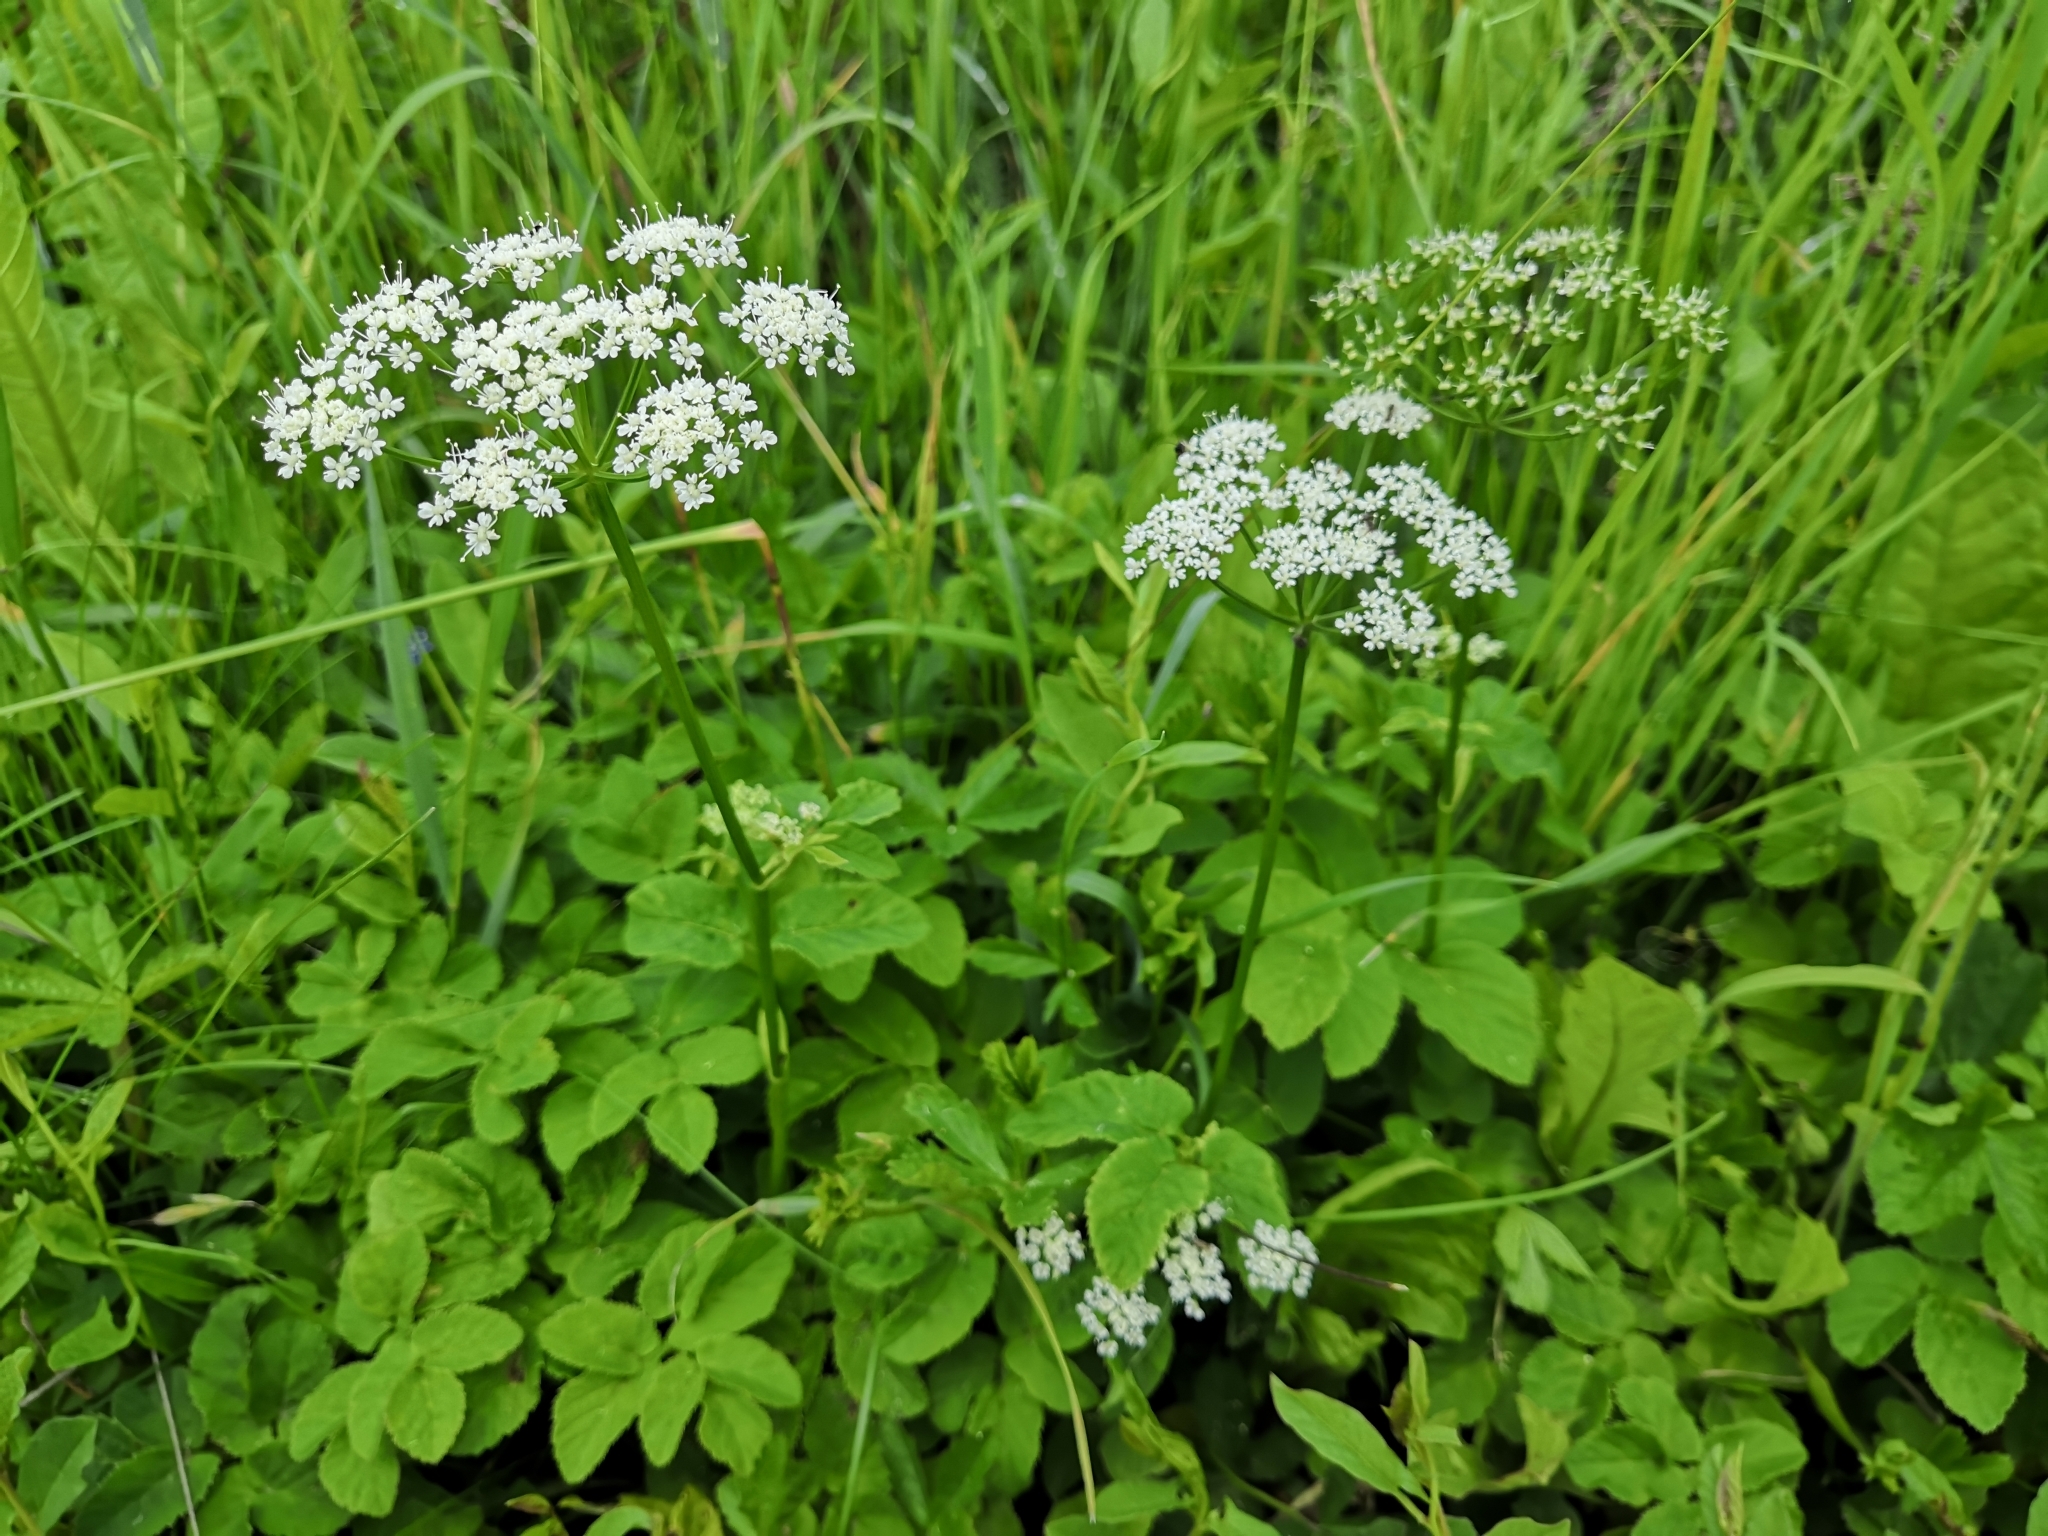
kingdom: Plantae
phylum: Tracheophyta
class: Magnoliopsida
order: Apiales
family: Apiaceae
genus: Aegopodium
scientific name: Aegopodium podagraria
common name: Ground-elder
